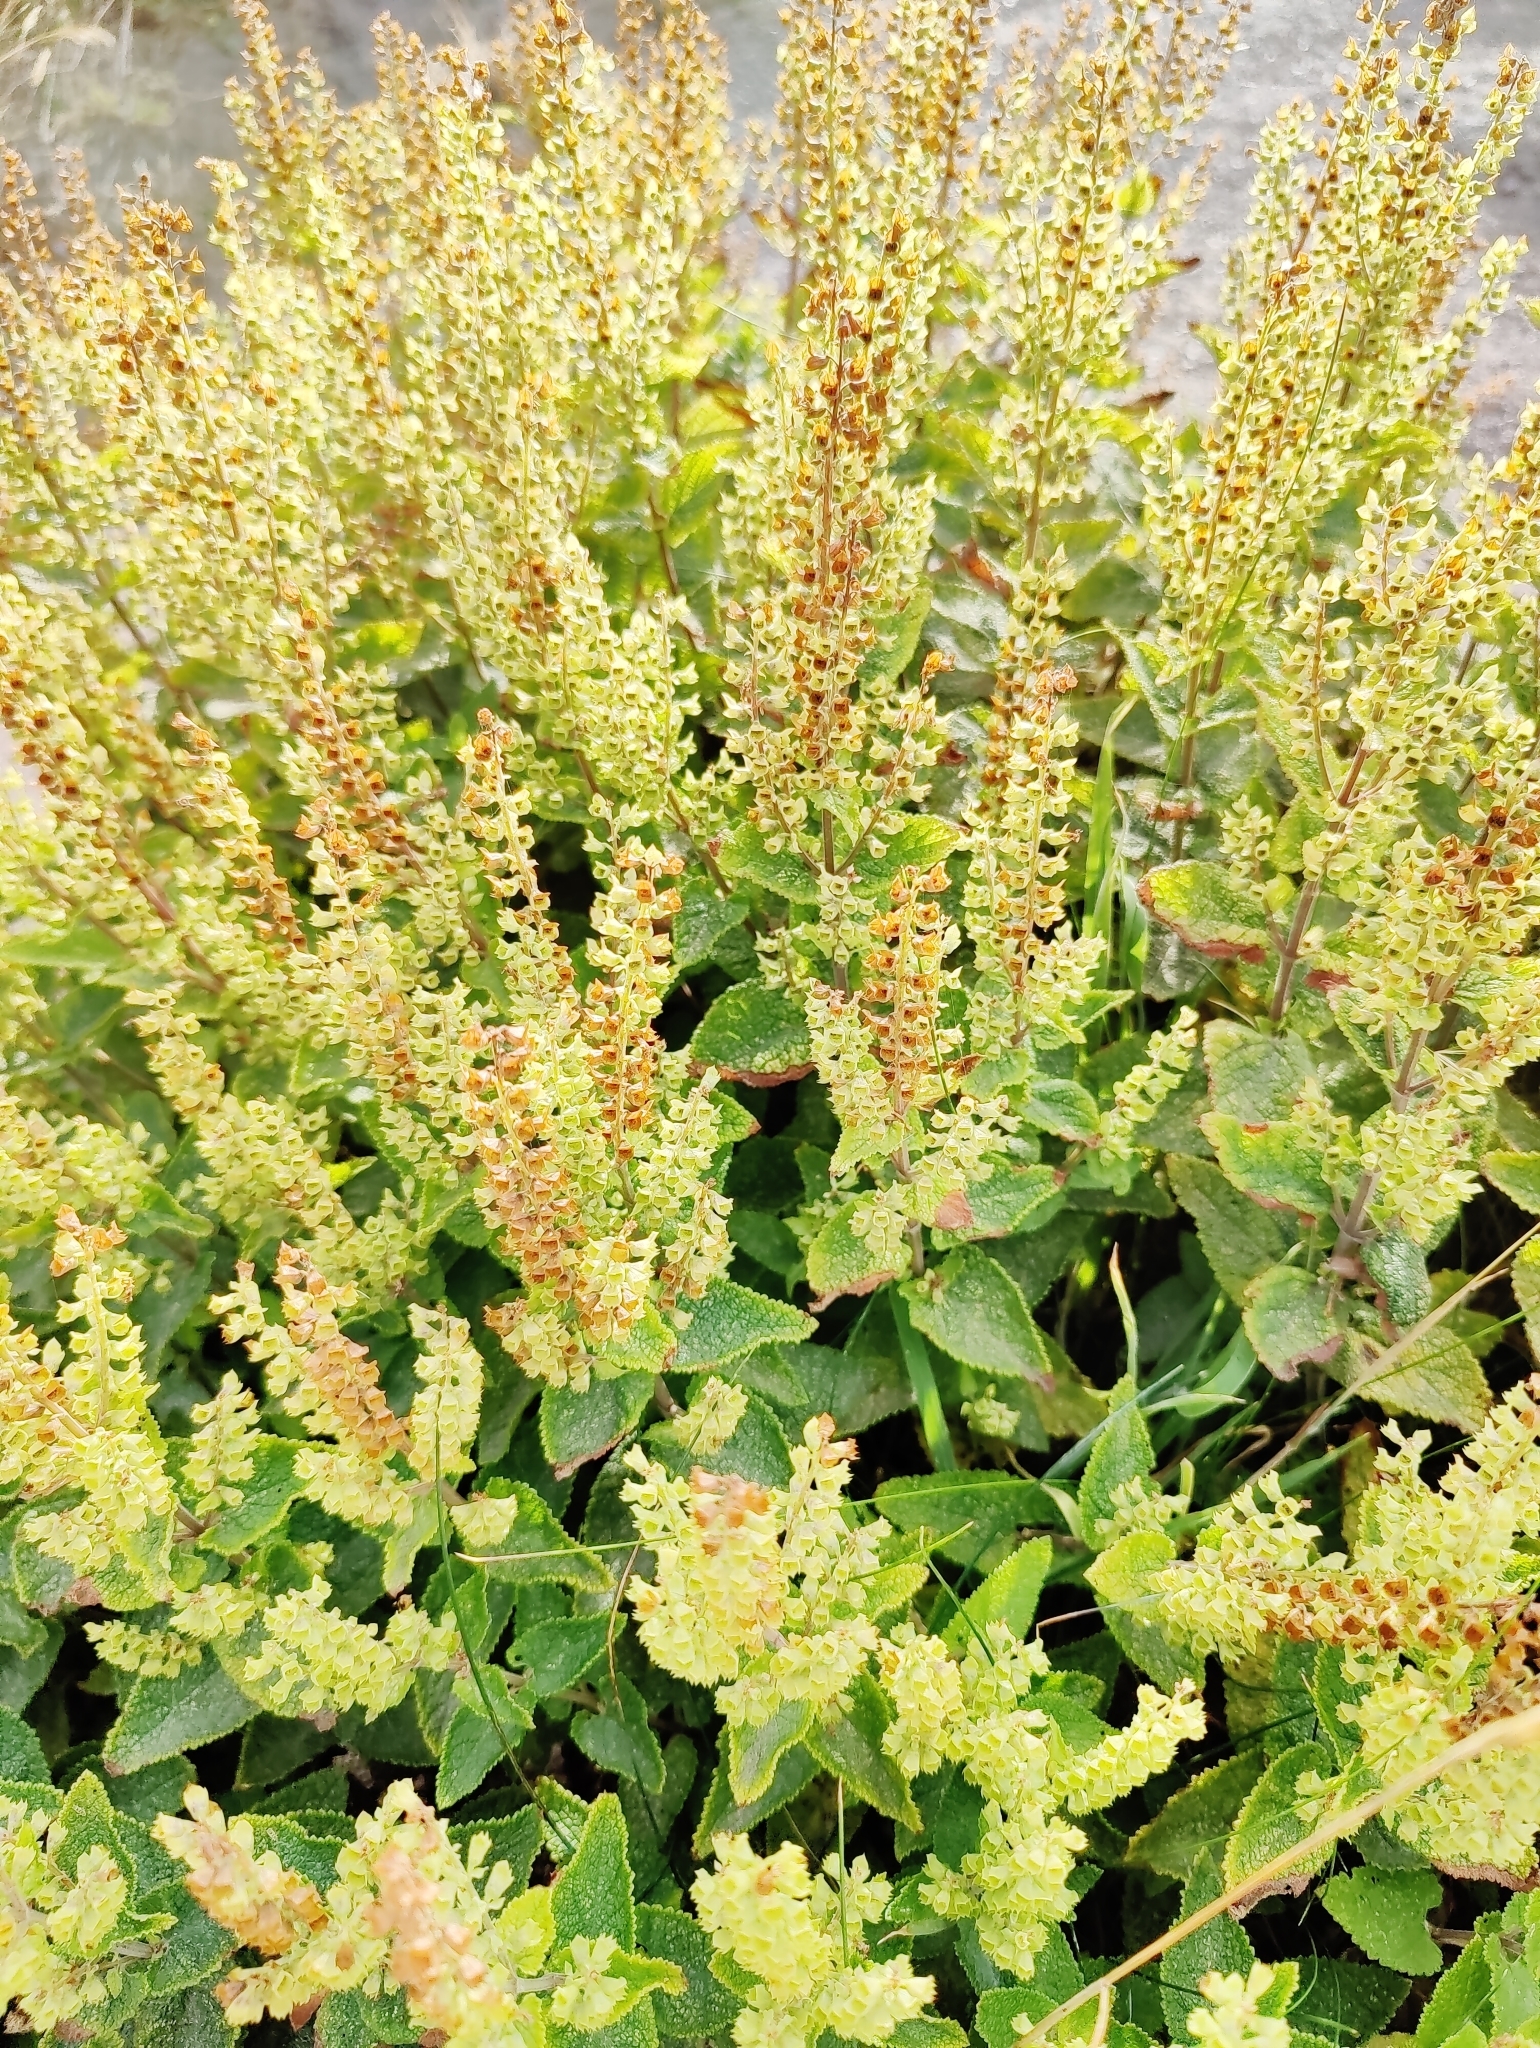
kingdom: Plantae
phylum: Tracheophyta
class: Magnoliopsida
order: Lamiales
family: Lamiaceae
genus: Teucrium
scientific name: Teucrium scorodonia
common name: Woodland germander
